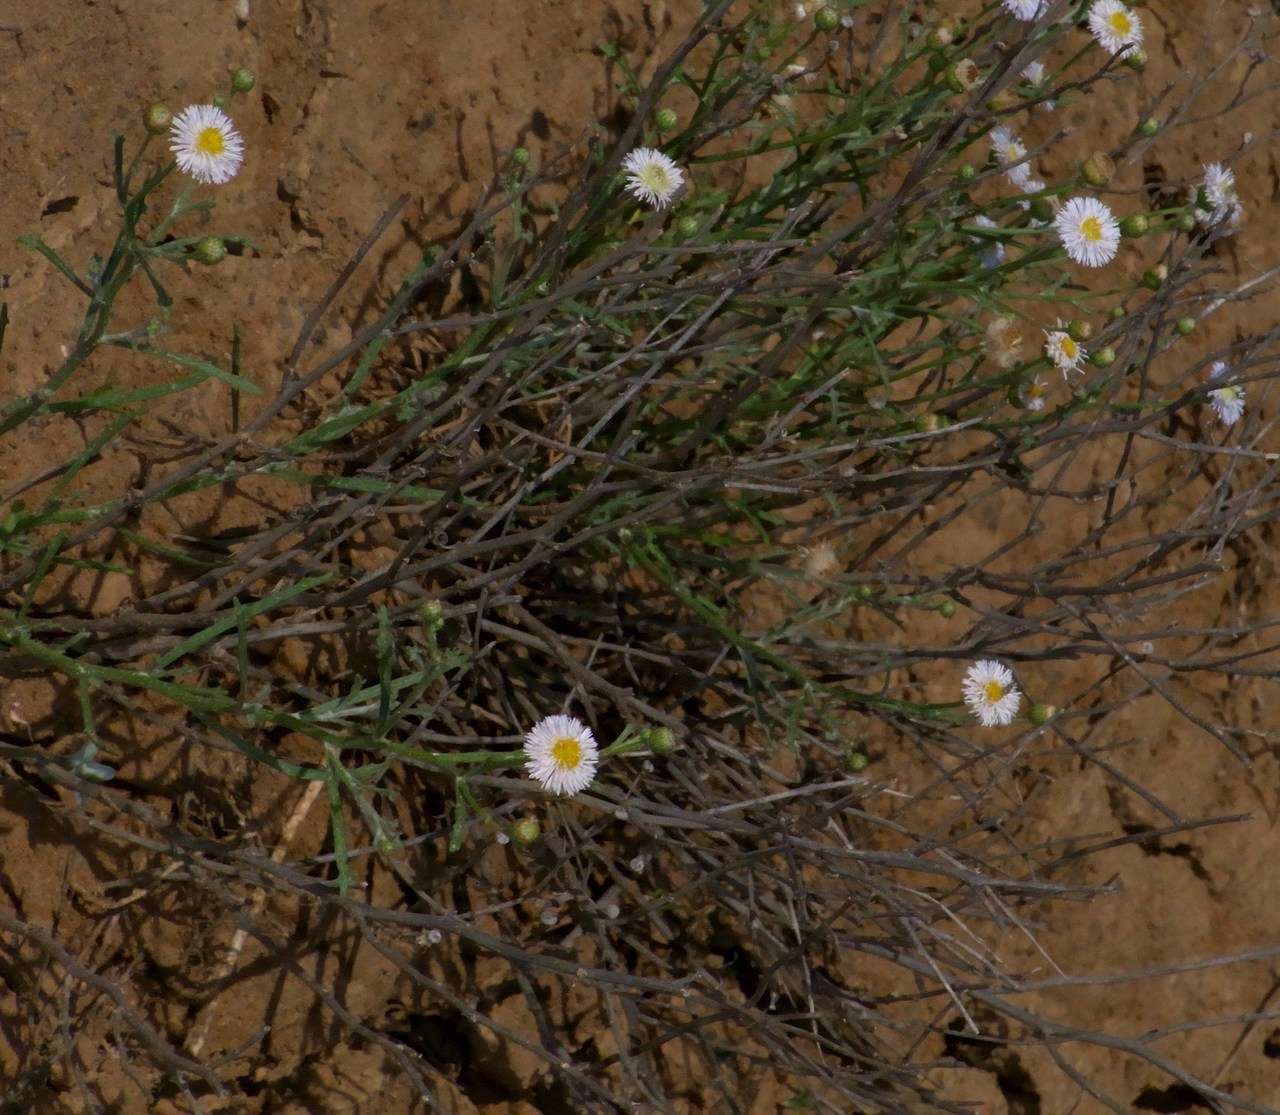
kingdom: Plantae
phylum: Tracheophyta
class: Magnoliopsida
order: Asterales
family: Asteraceae
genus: Minuria
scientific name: Minuria denticulata
